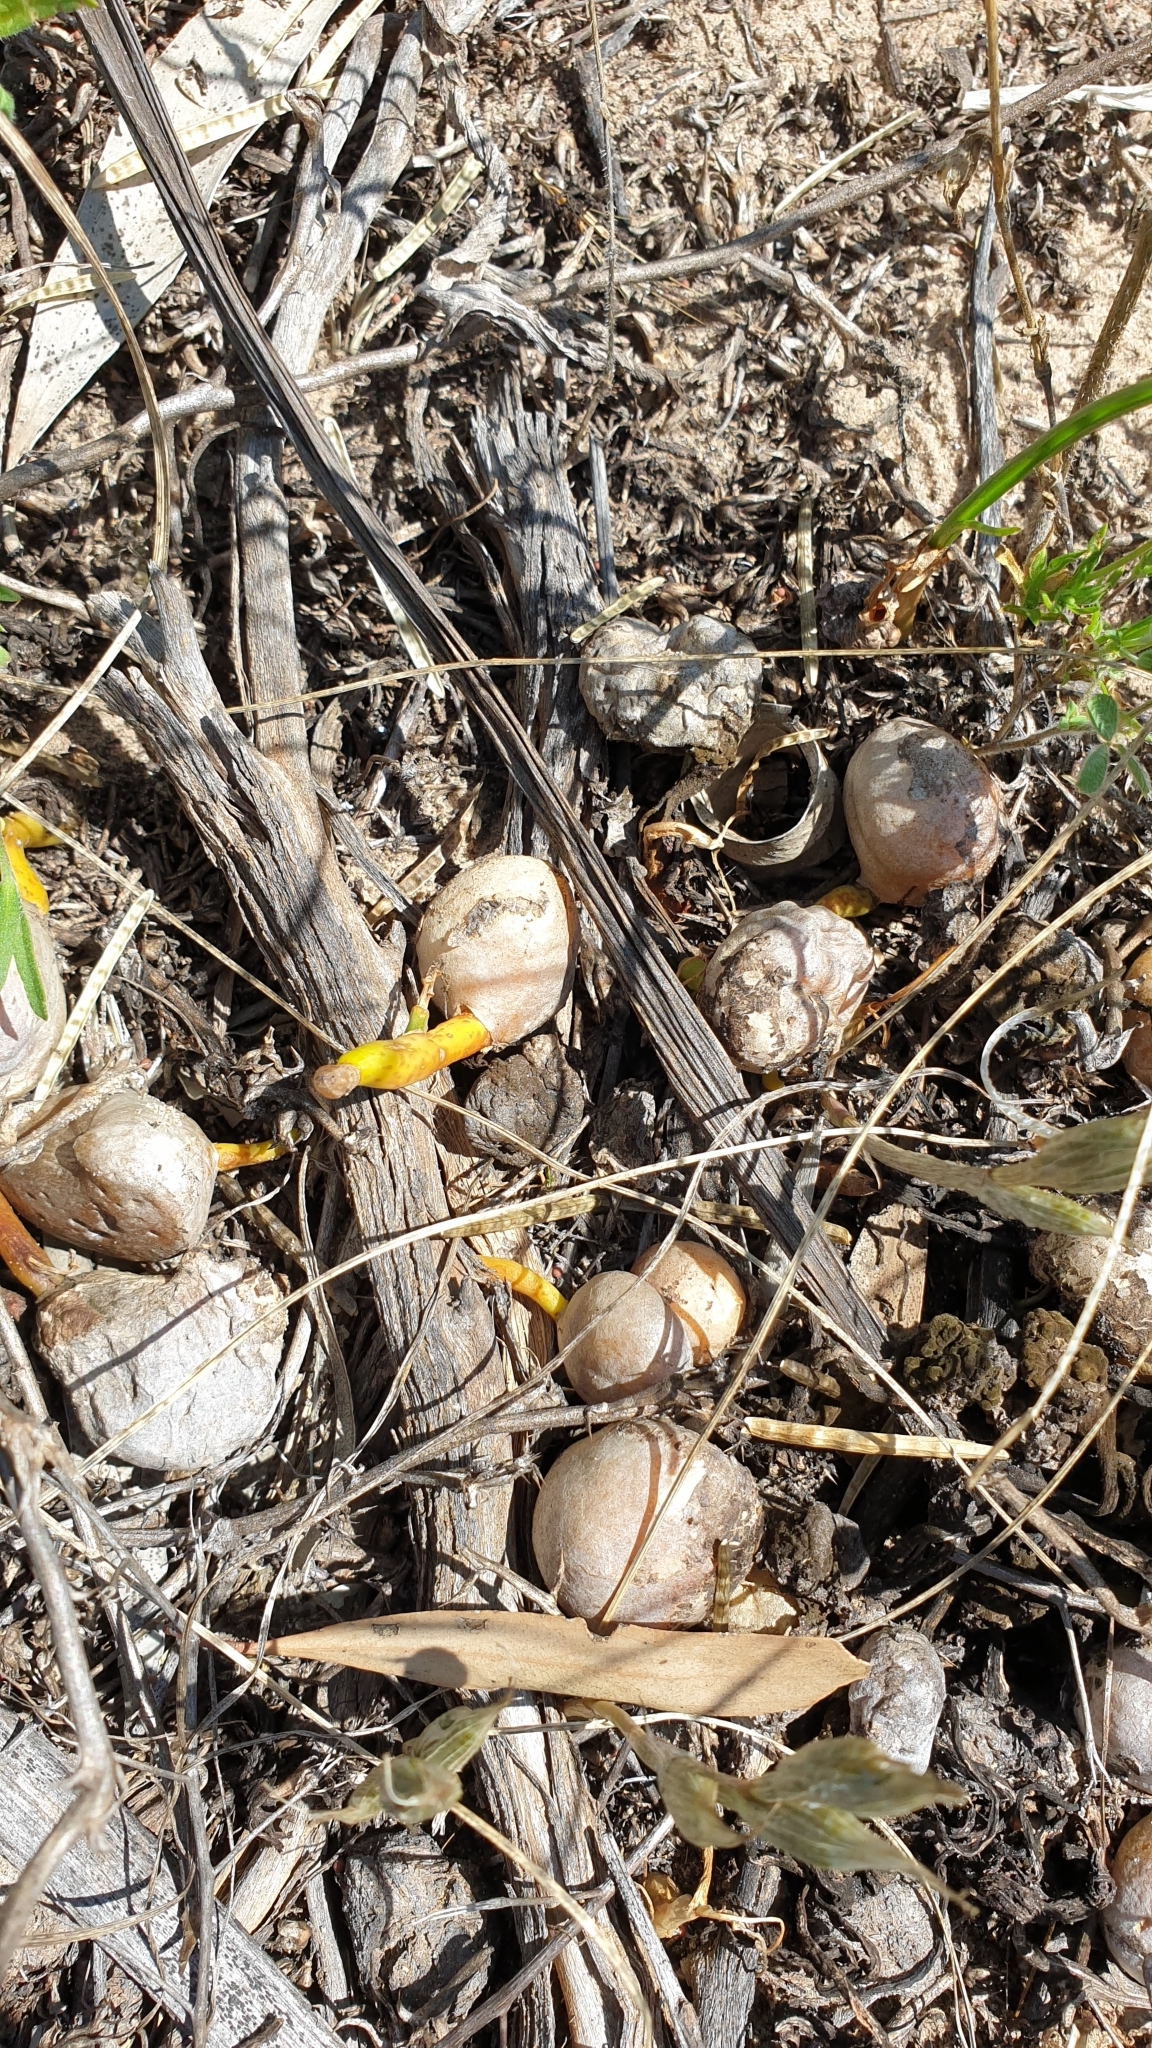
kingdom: Plantae
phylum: Tracheophyta
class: Liliopsida
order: Asparagales
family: Amaryllidaceae
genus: Crinum
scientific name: Crinum flaccidum
